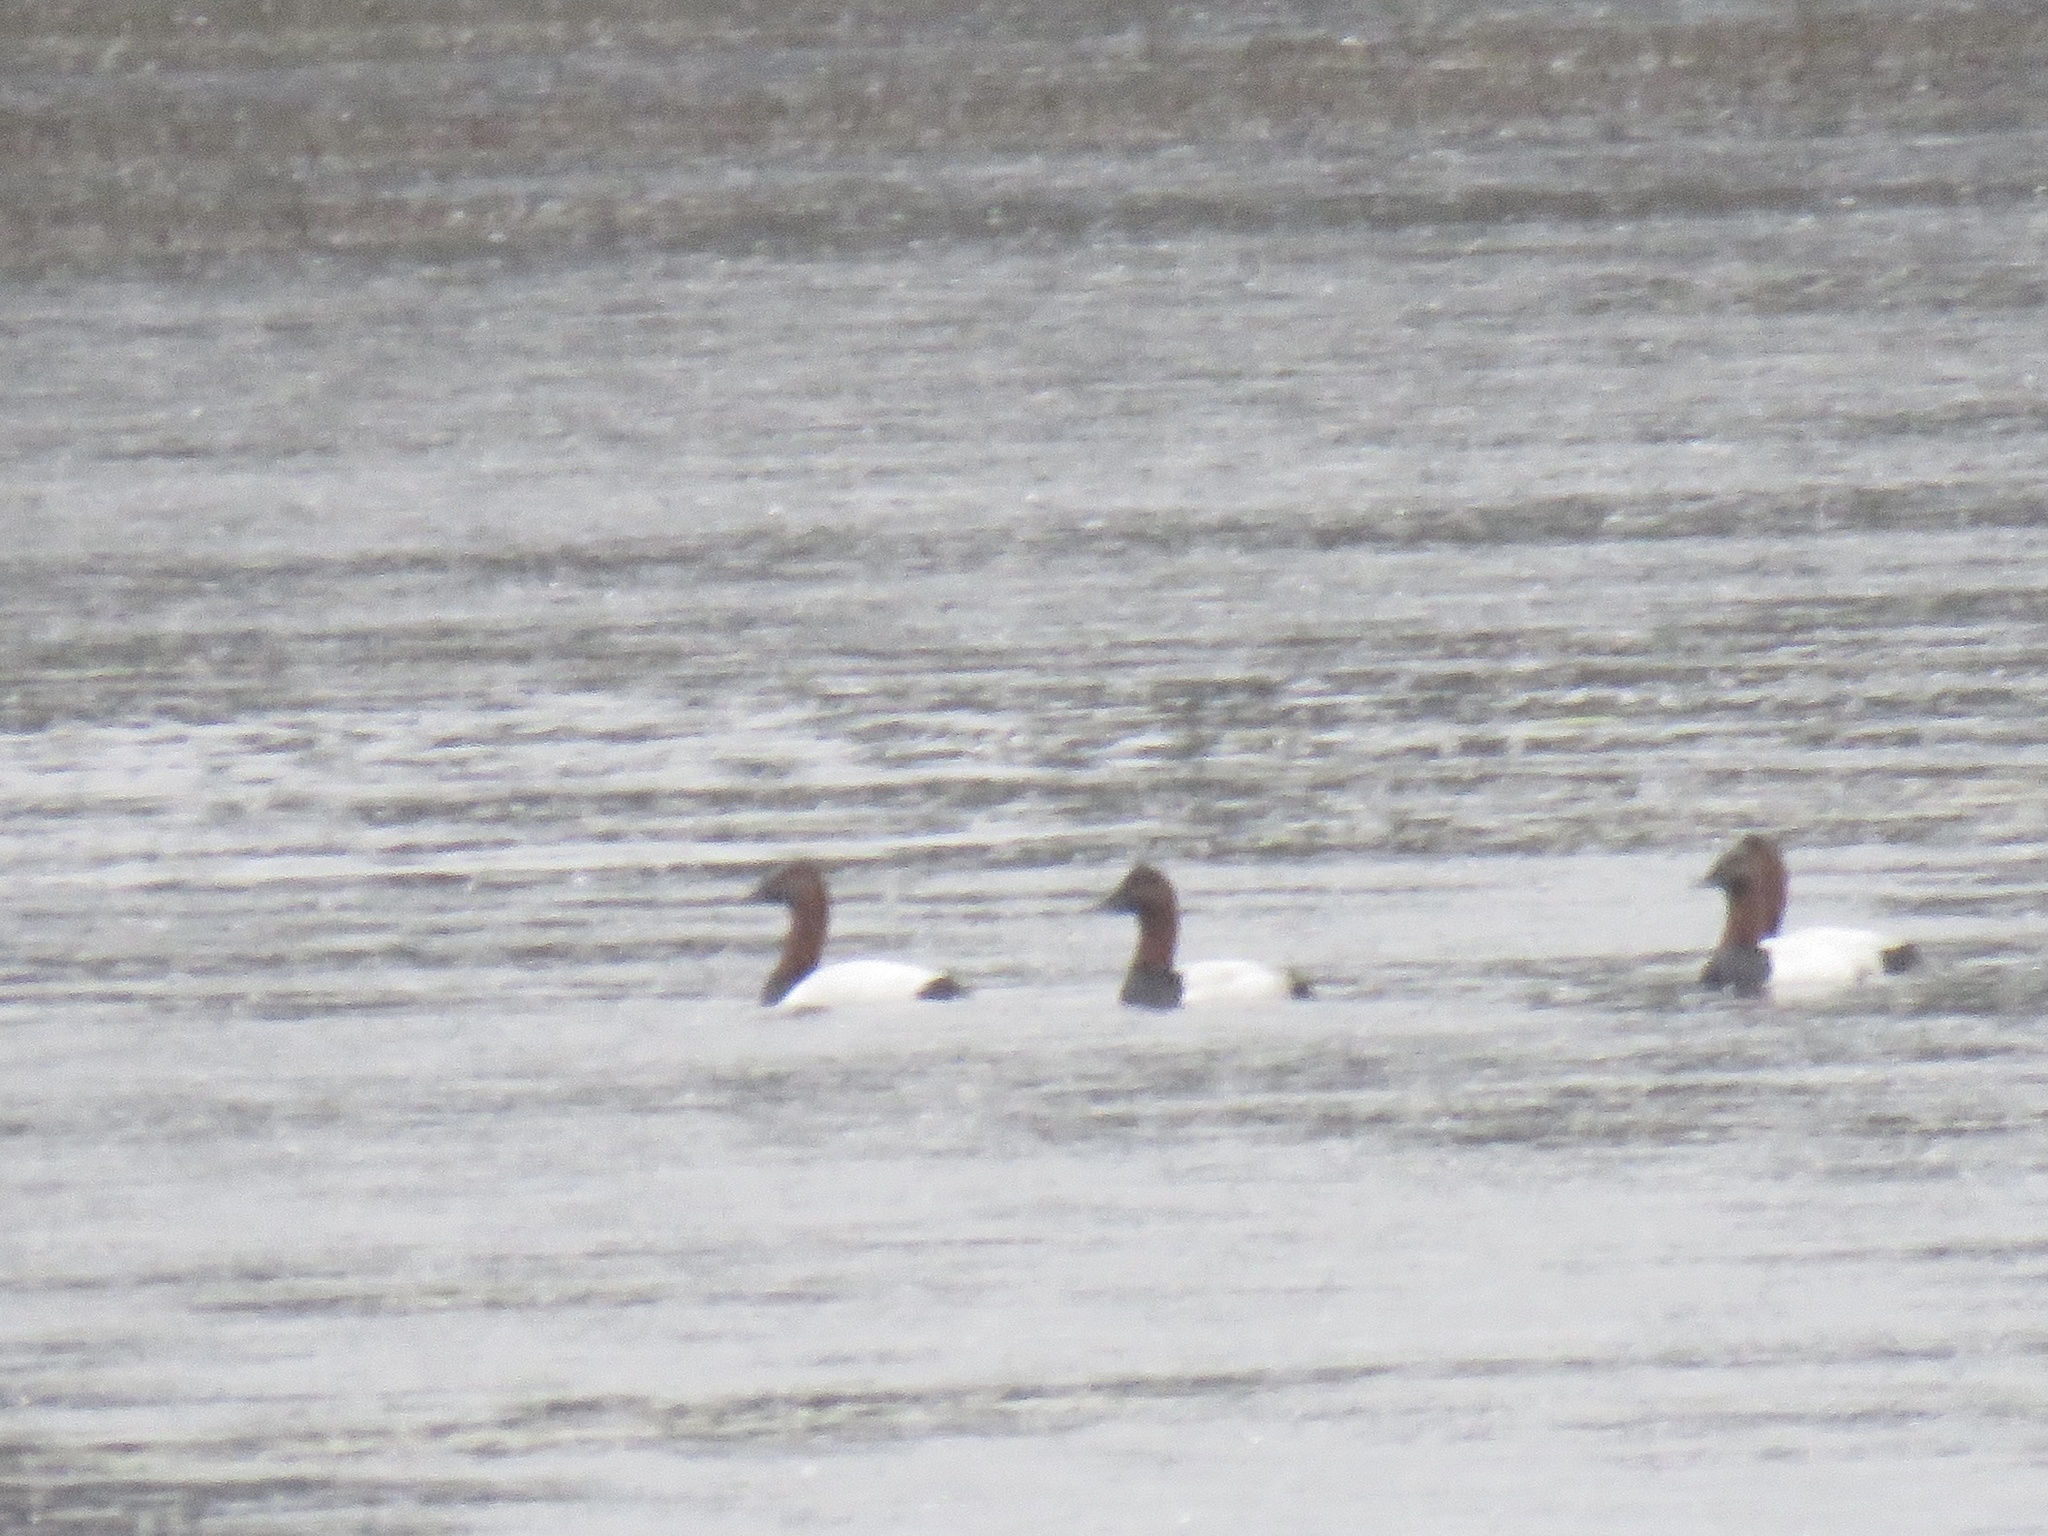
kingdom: Animalia
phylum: Chordata
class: Aves
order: Anseriformes
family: Anatidae
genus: Aythya
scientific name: Aythya valisineria
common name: Canvasback
